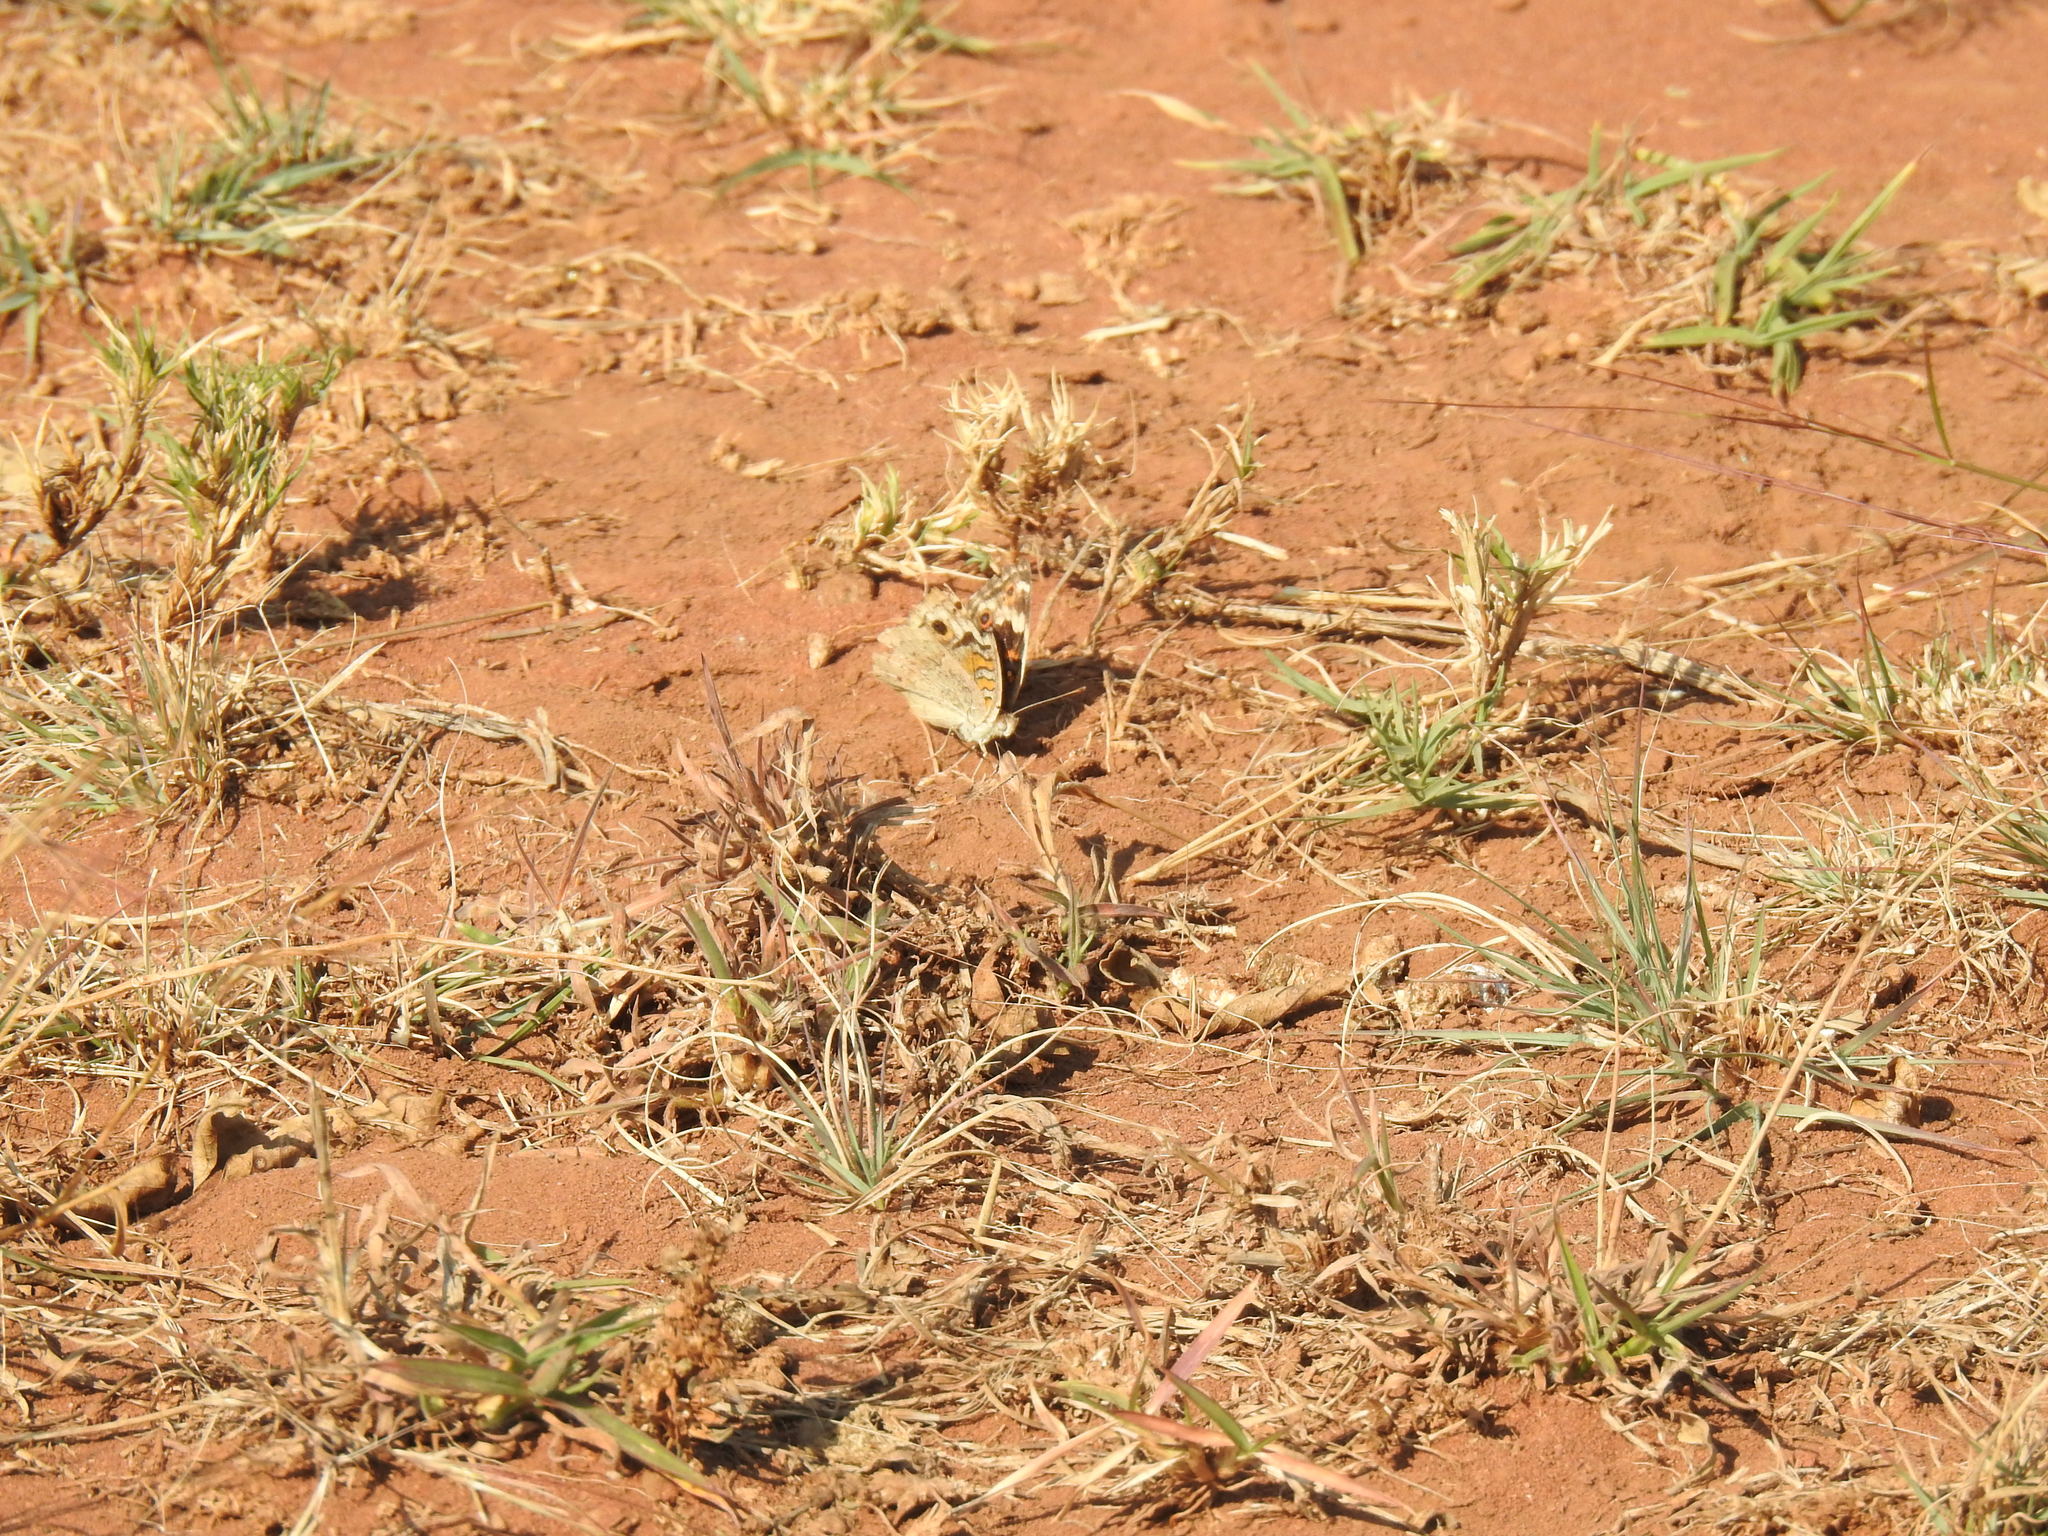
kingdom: Animalia
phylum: Arthropoda
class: Insecta
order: Lepidoptera
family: Nymphalidae
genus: Junonia
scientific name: Junonia orithya
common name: Blue pansy
